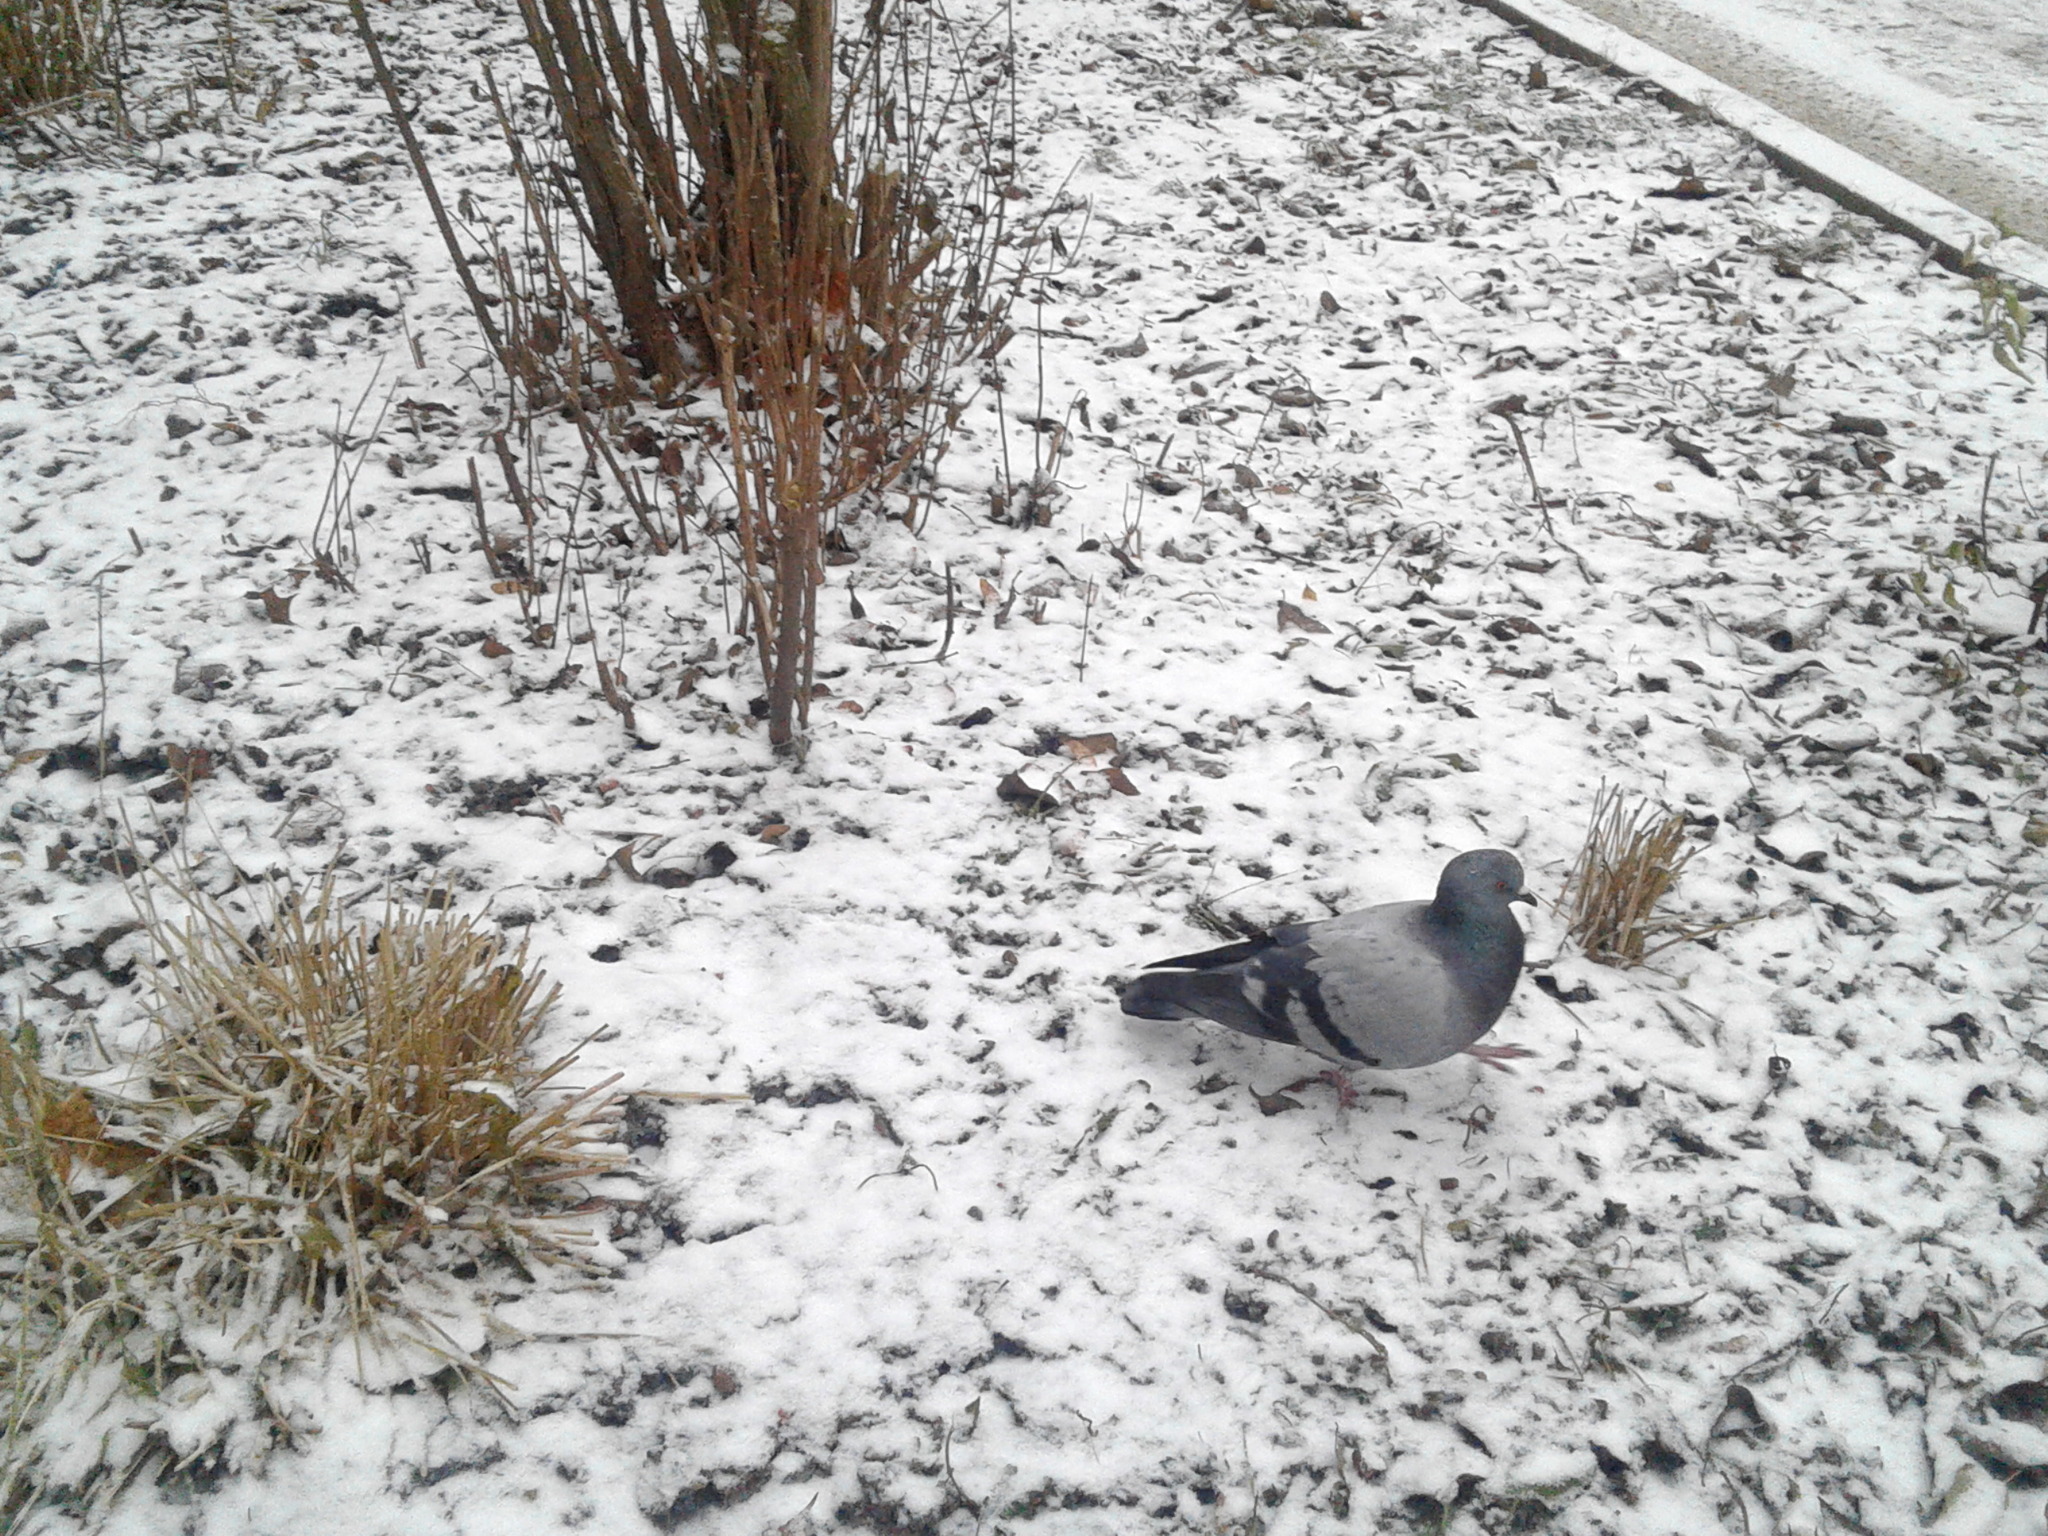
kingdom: Animalia
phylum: Chordata
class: Aves
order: Columbiformes
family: Columbidae
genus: Columba
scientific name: Columba livia
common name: Rock pigeon
